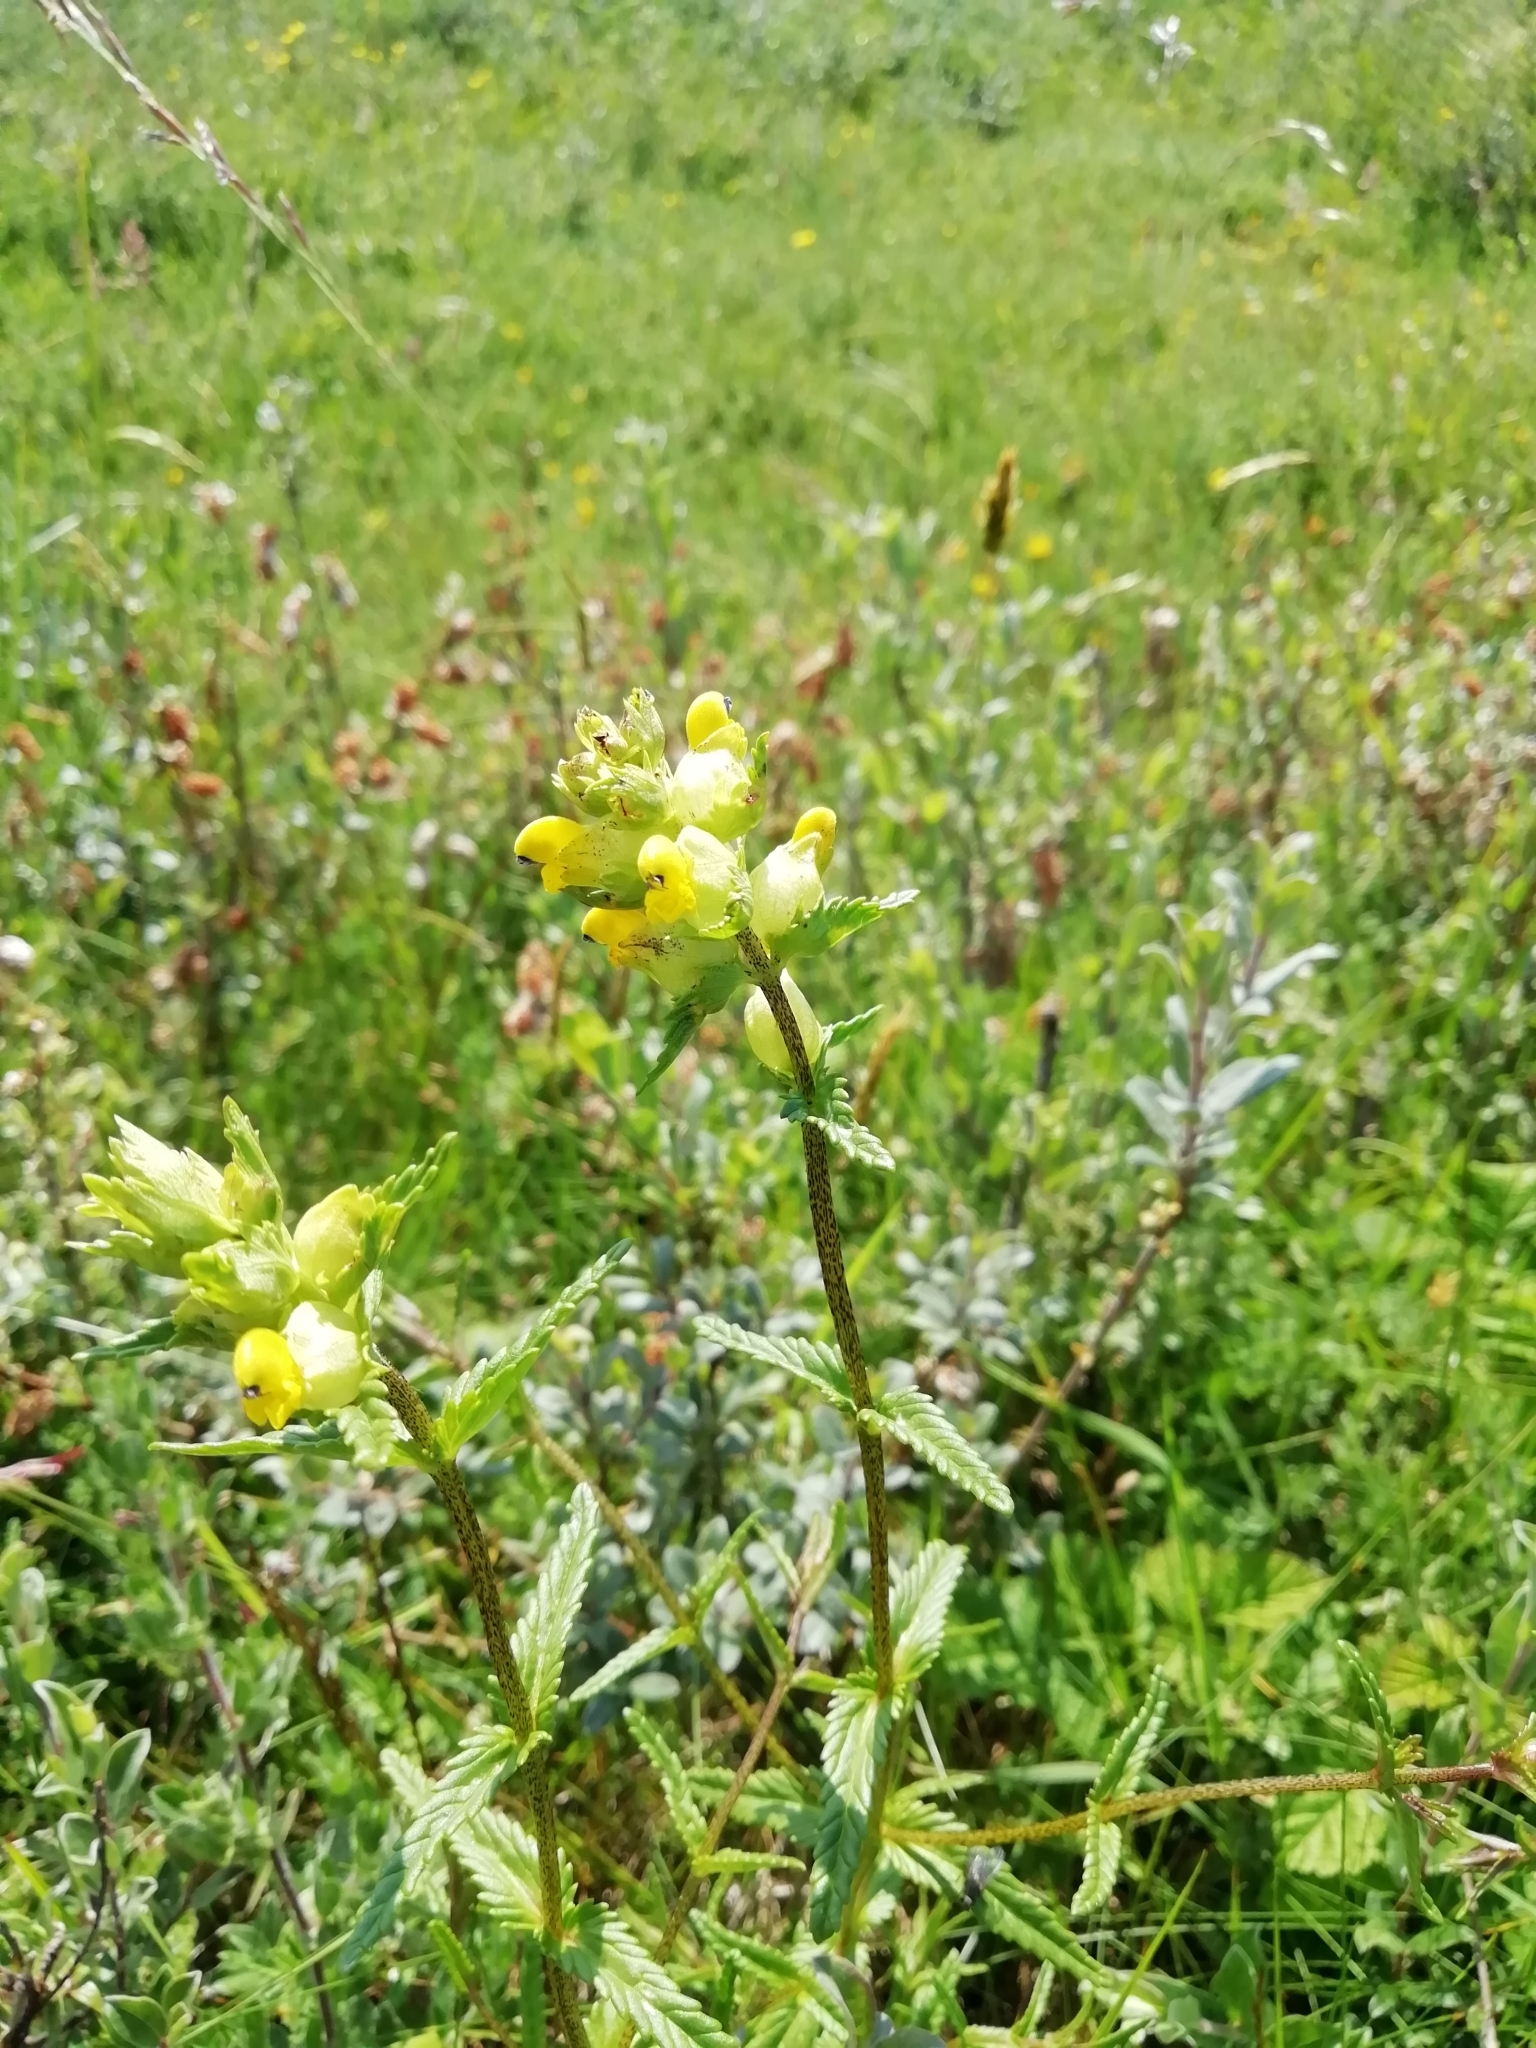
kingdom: Plantae
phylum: Tracheophyta
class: Magnoliopsida
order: Lamiales
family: Orobanchaceae
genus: Rhinanthus
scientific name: Rhinanthus minor
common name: Yellow-rattle
